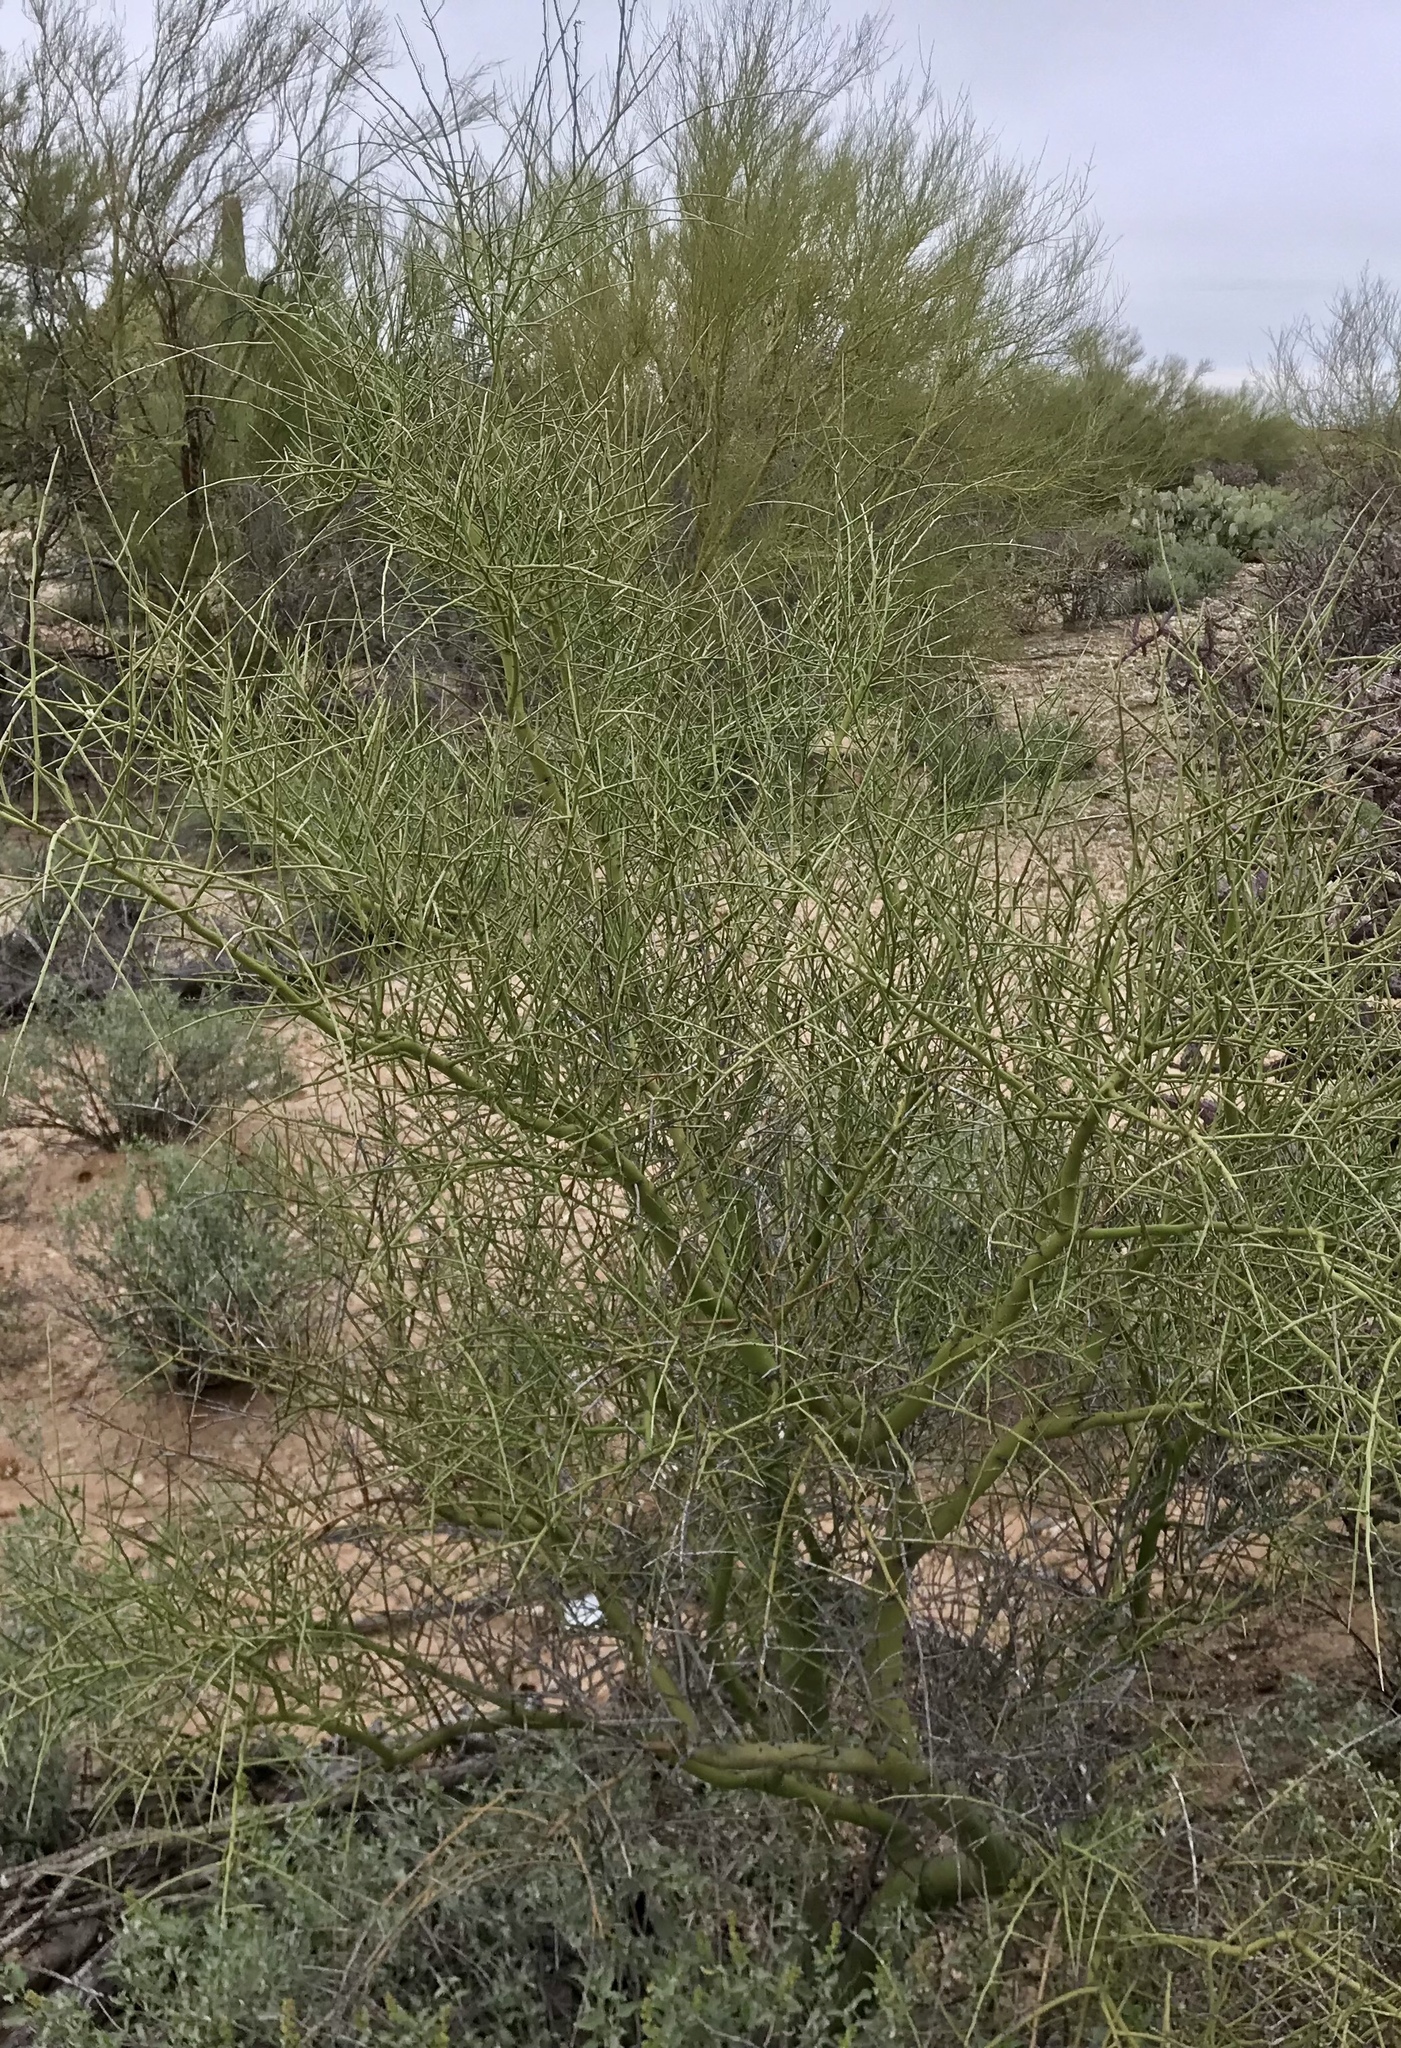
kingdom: Plantae
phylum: Tracheophyta
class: Magnoliopsida
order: Fabales
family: Fabaceae
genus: Parkinsonia
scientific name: Parkinsonia microphylla
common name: Yellow paloverde
